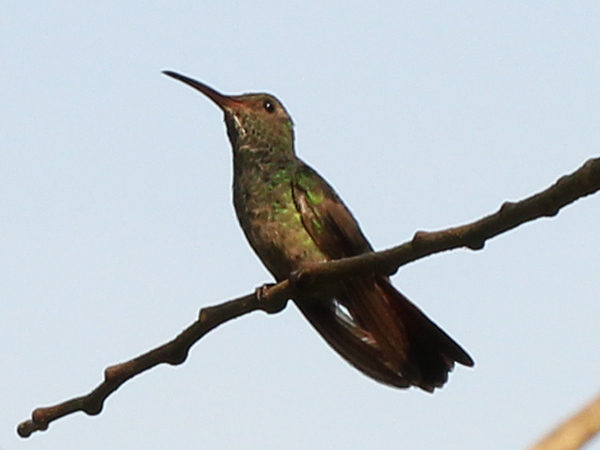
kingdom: Animalia
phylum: Chordata
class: Aves
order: Apodiformes
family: Trochilidae
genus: Phaeochroa
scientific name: Phaeochroa cuvierii
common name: Scaly-breasted hummingbird
